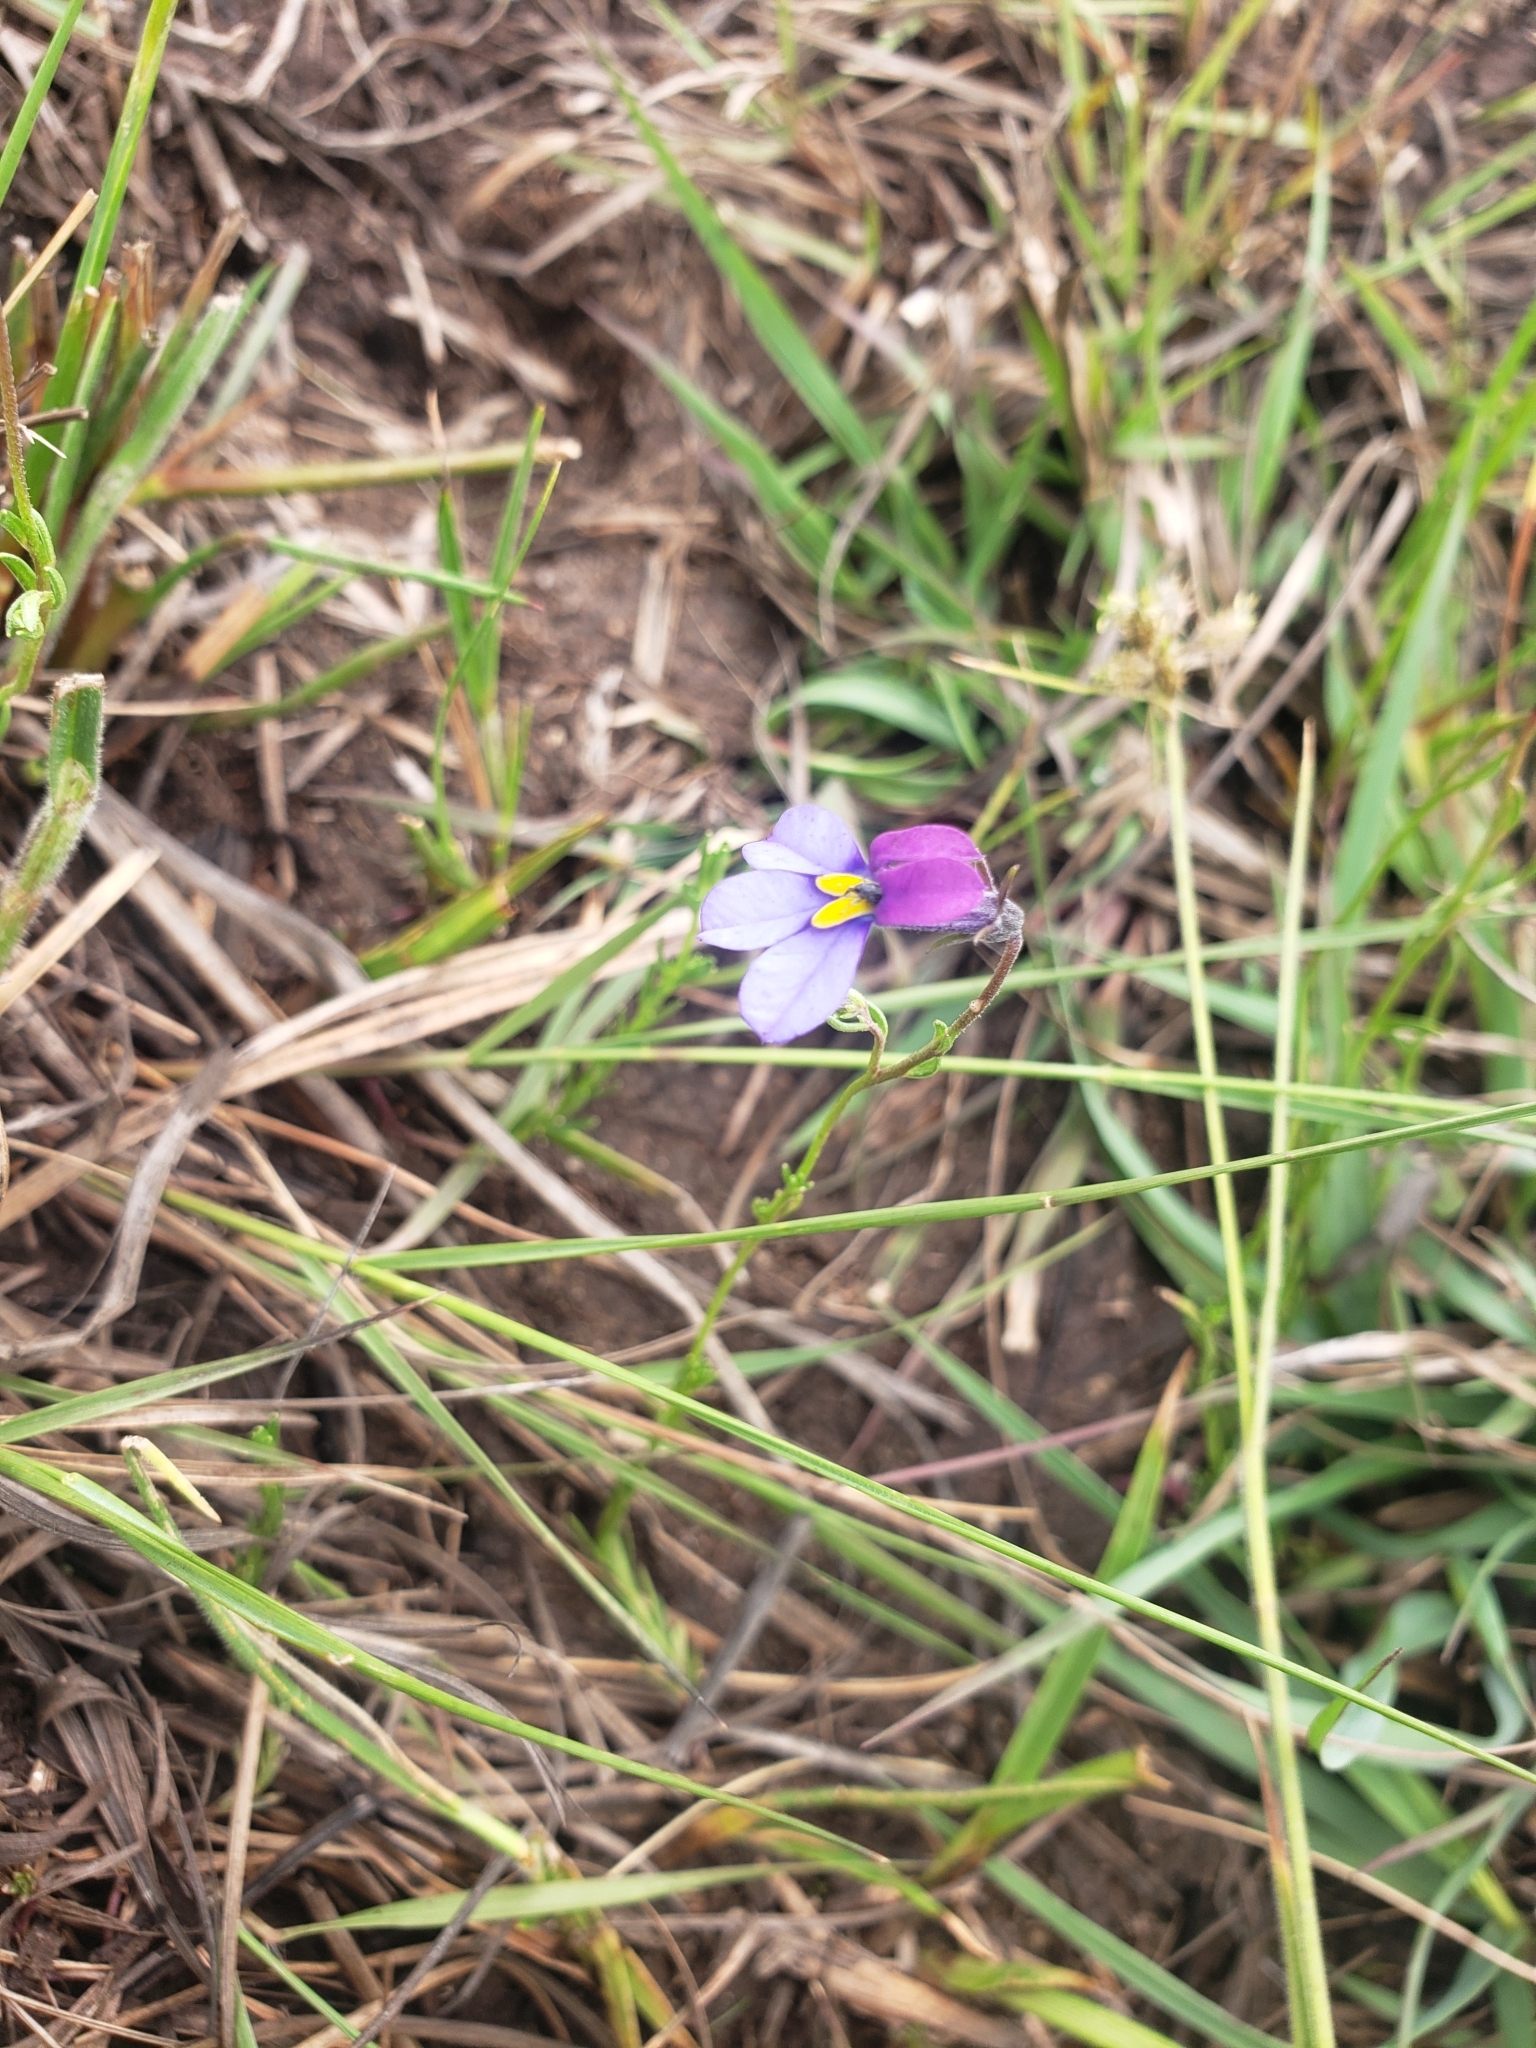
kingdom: Plantae
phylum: Tracheophyta
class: Magnoliopsida
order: Asterales
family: Campanulaceae
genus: Monopsis
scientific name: Monopsis decipiens
